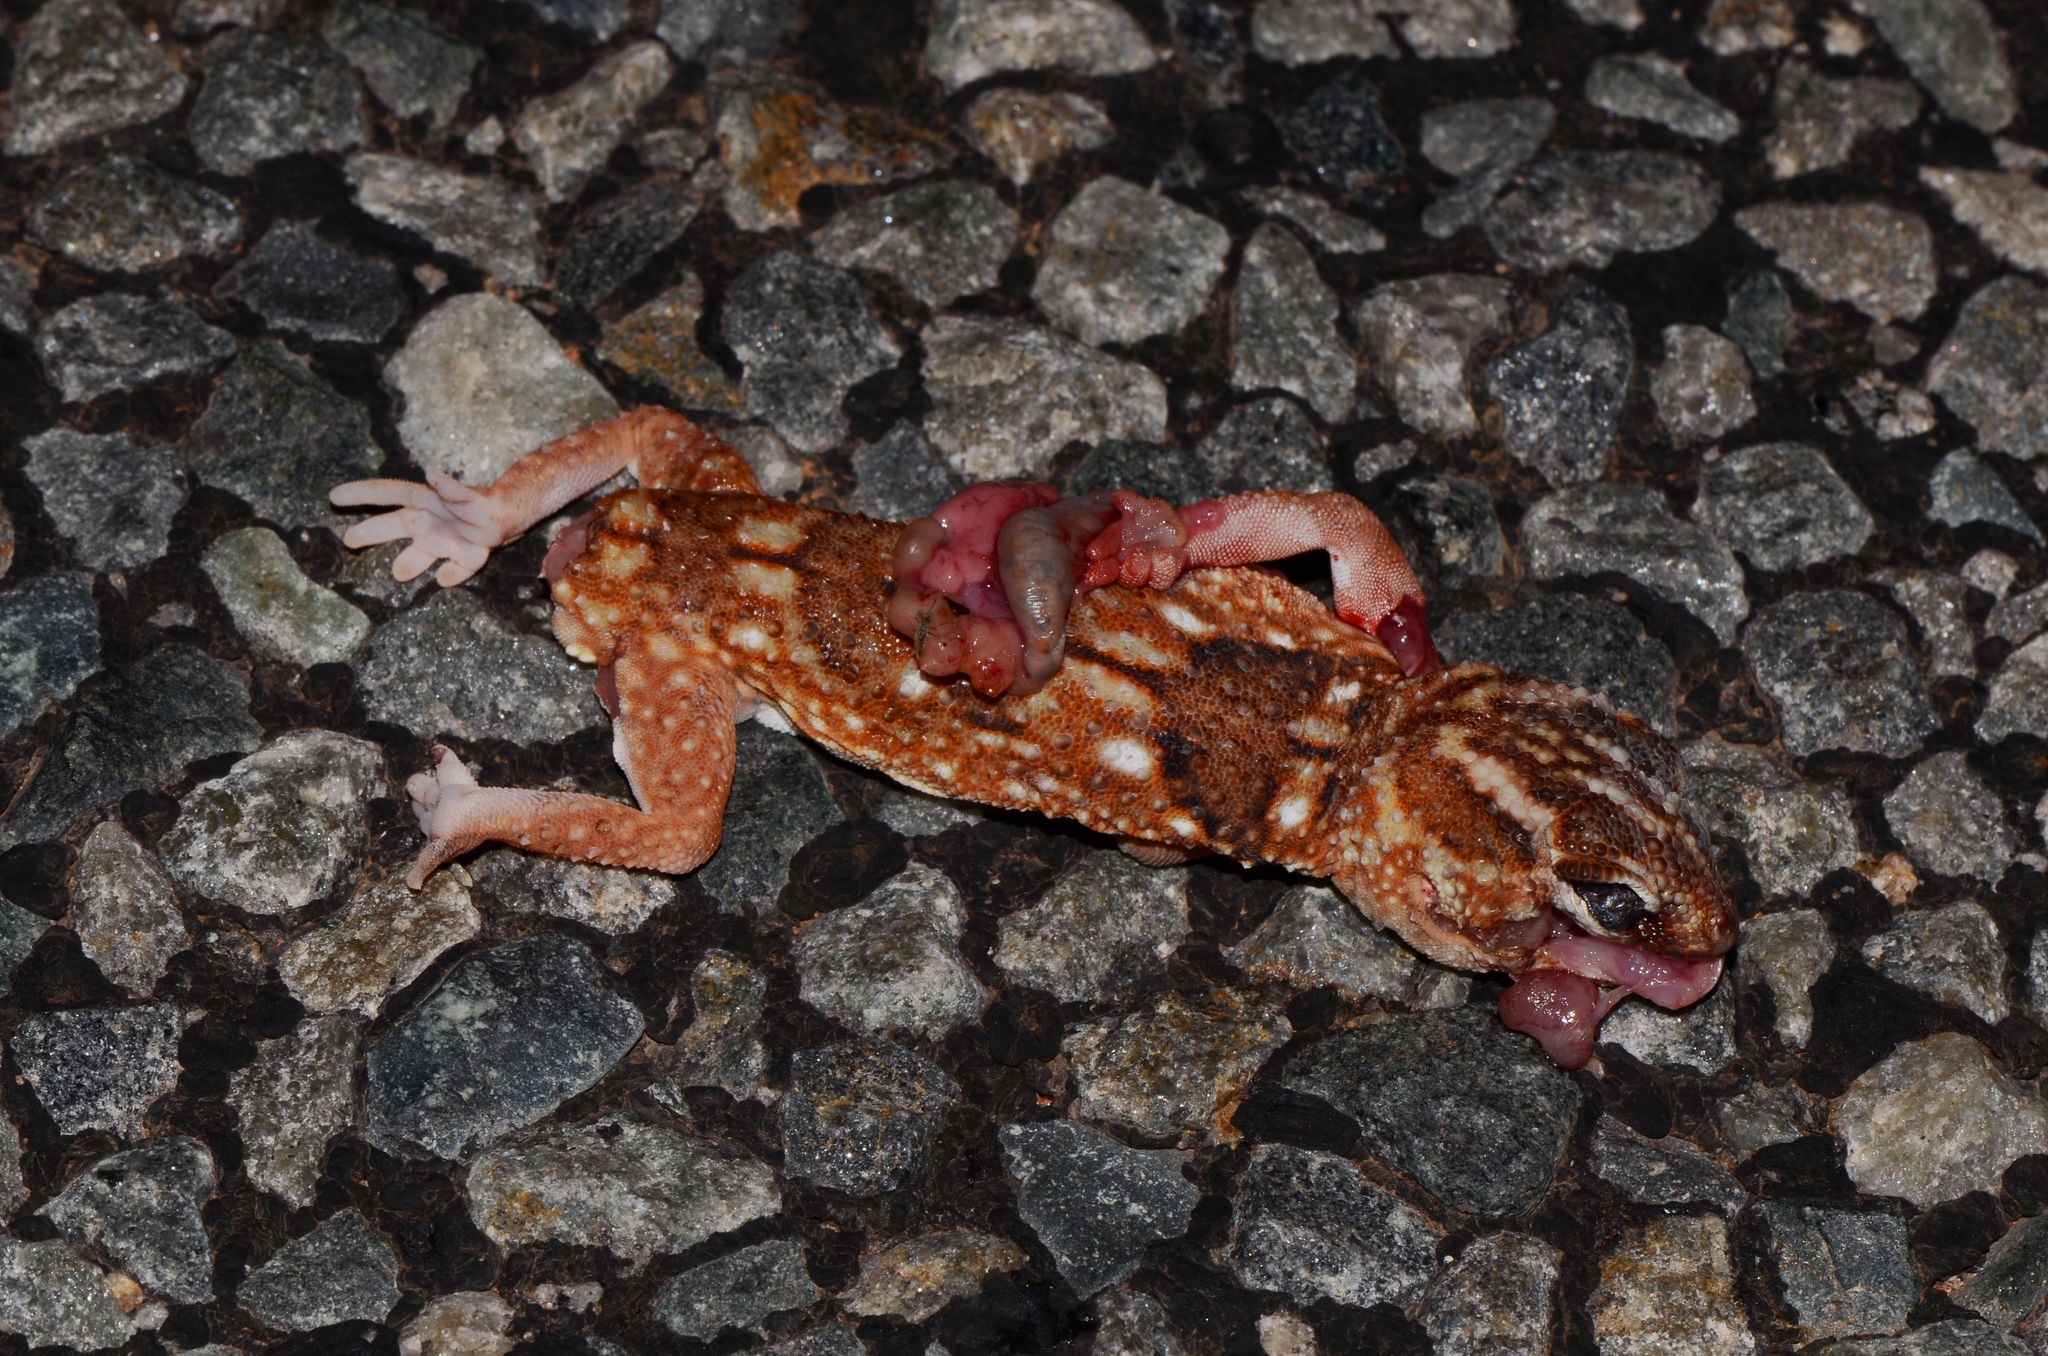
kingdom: Animalia
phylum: Chordata
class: Squamata
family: Gekkonidae
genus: Chondrodactylus
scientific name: Chondrodactylus angulifer
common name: Common giant ground gecko
